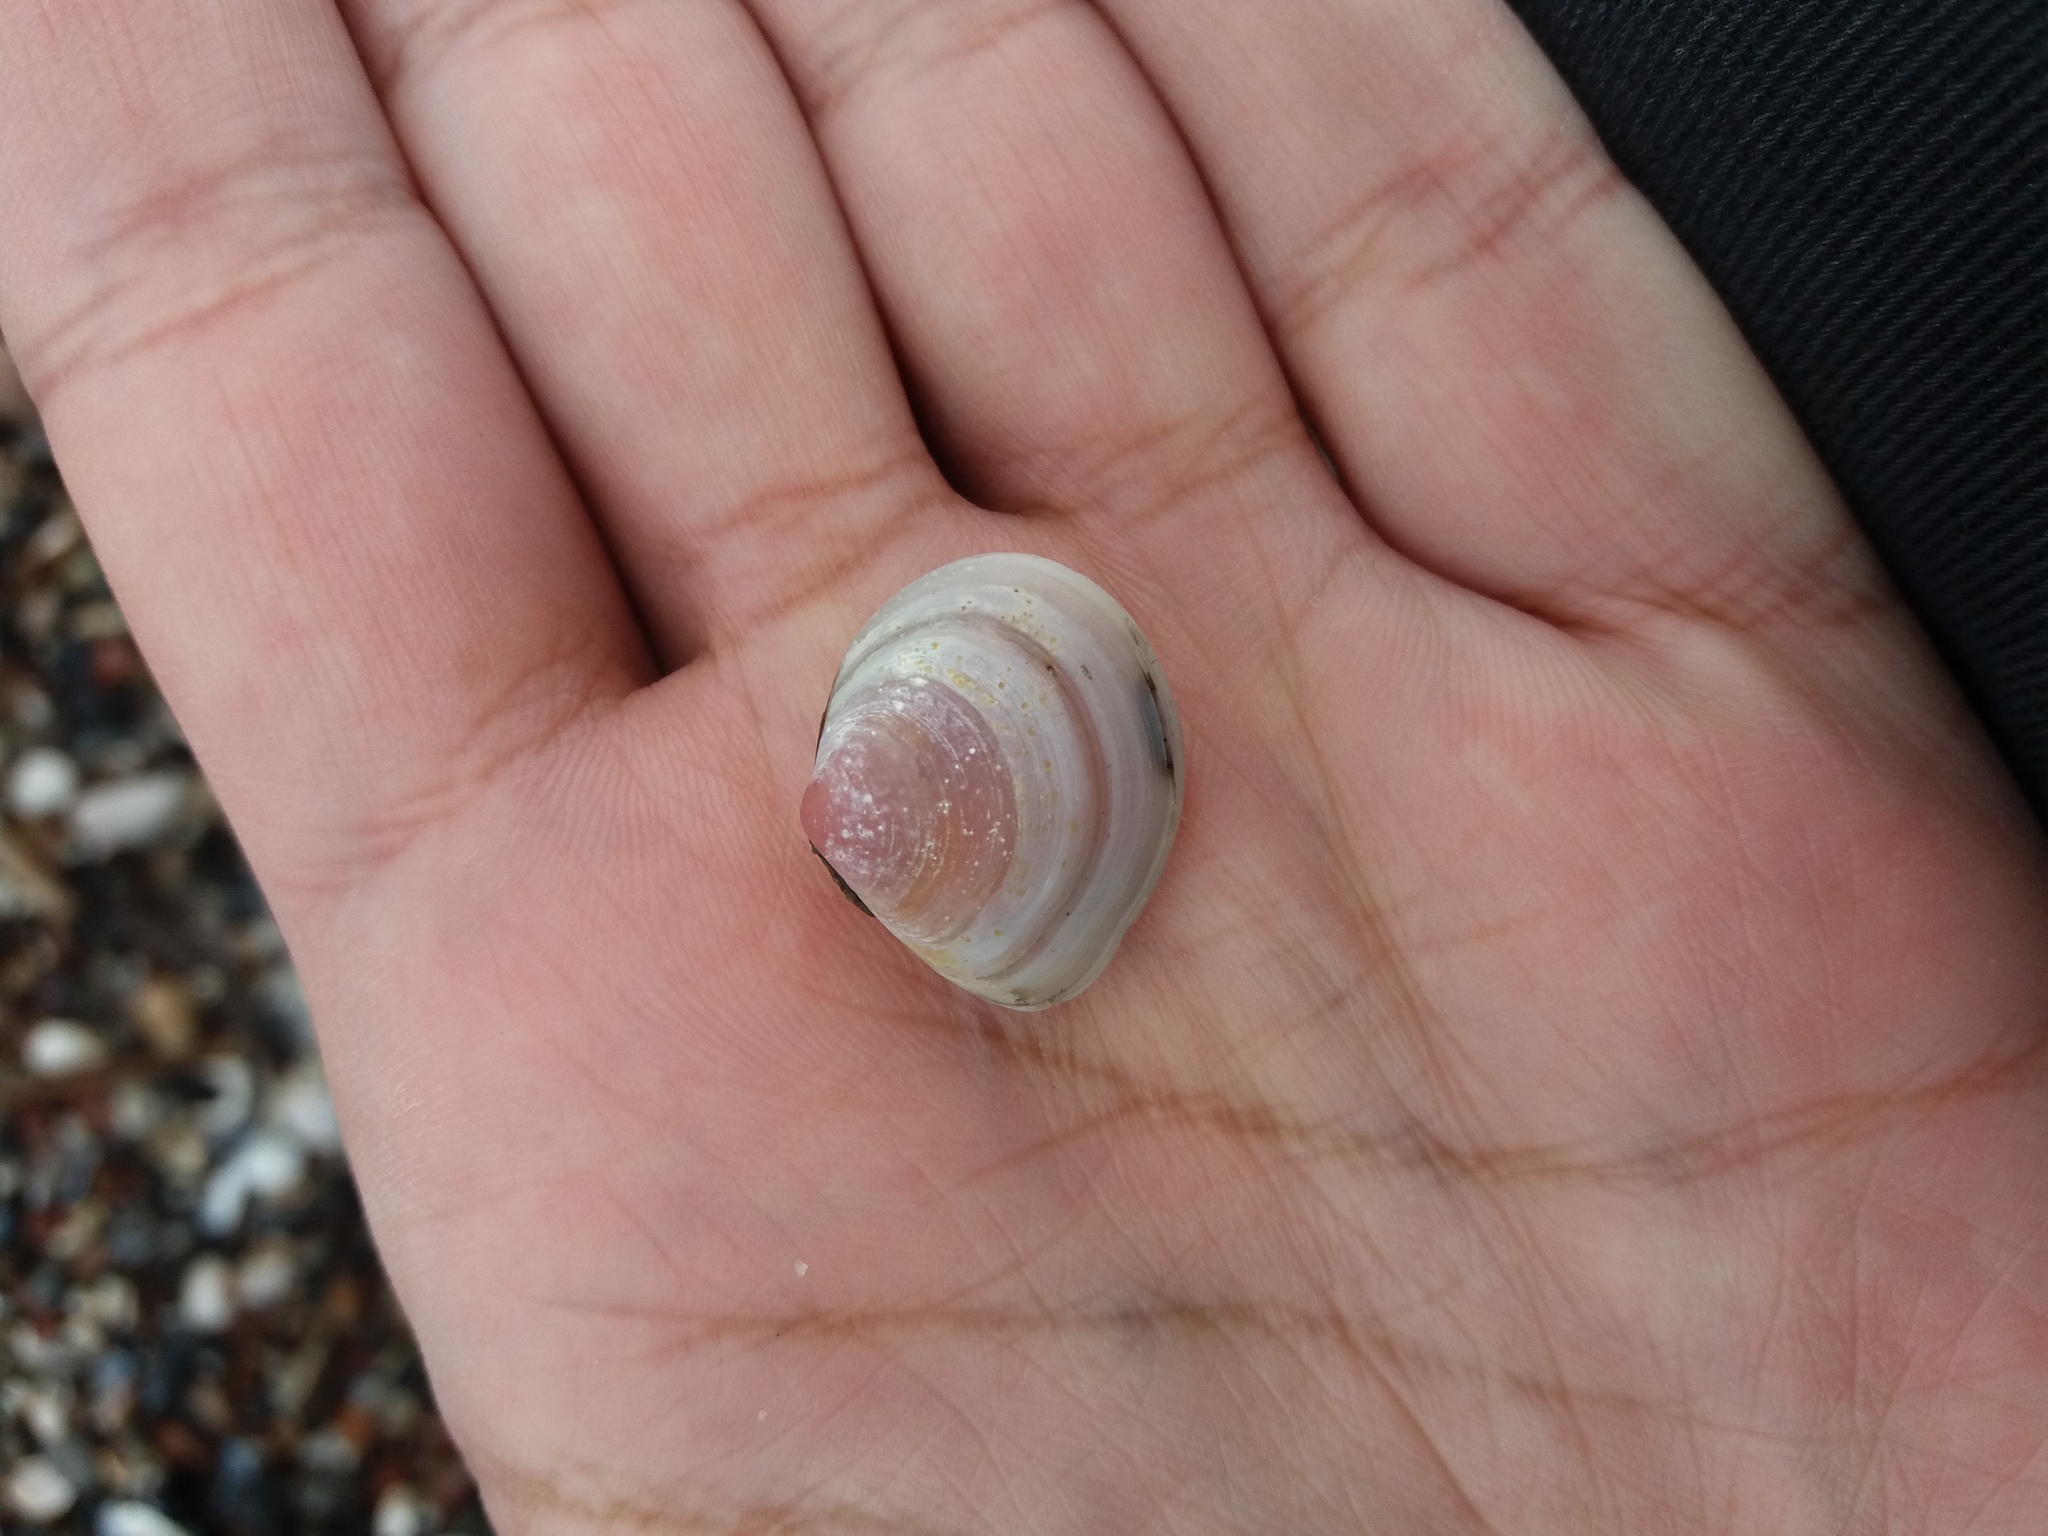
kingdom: Animalia
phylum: Mollusca
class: Bivalvia
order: Cardiida
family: Tellinidae
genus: Macoma
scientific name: Macoma balthica
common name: Baltic tellin
